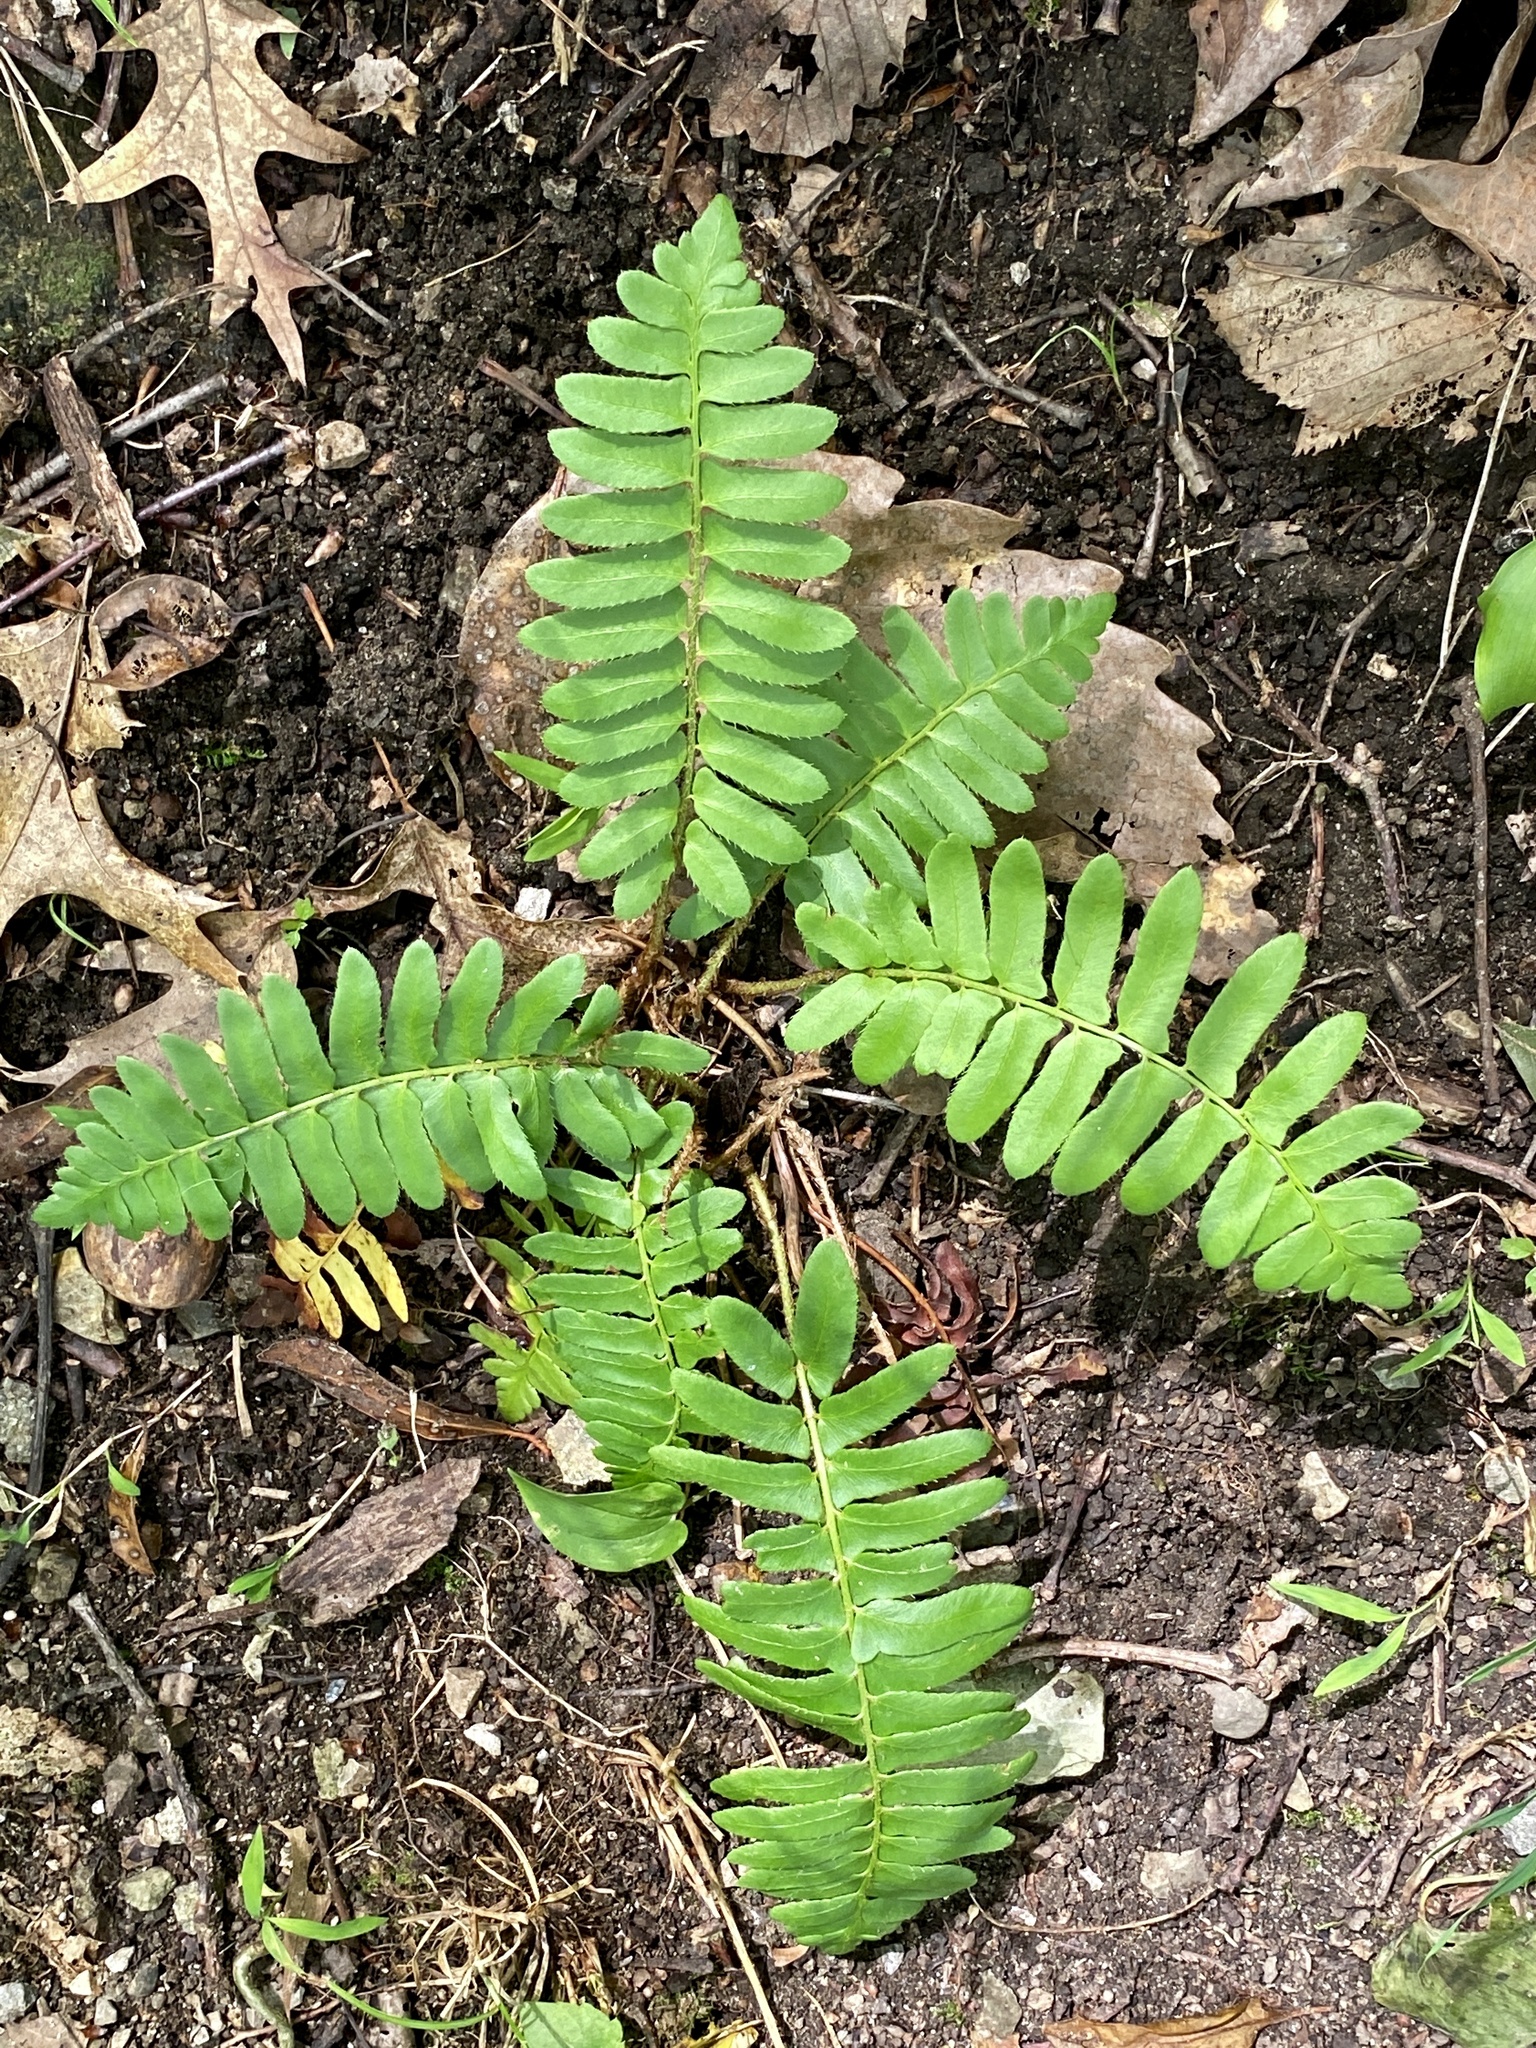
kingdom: Plantae
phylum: Tracheophyta
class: Polypodiopsida
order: Polypodiales
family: Dryopteridaceae
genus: Polystichum
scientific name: Polystichum acrostichoides
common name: Christmas fern
